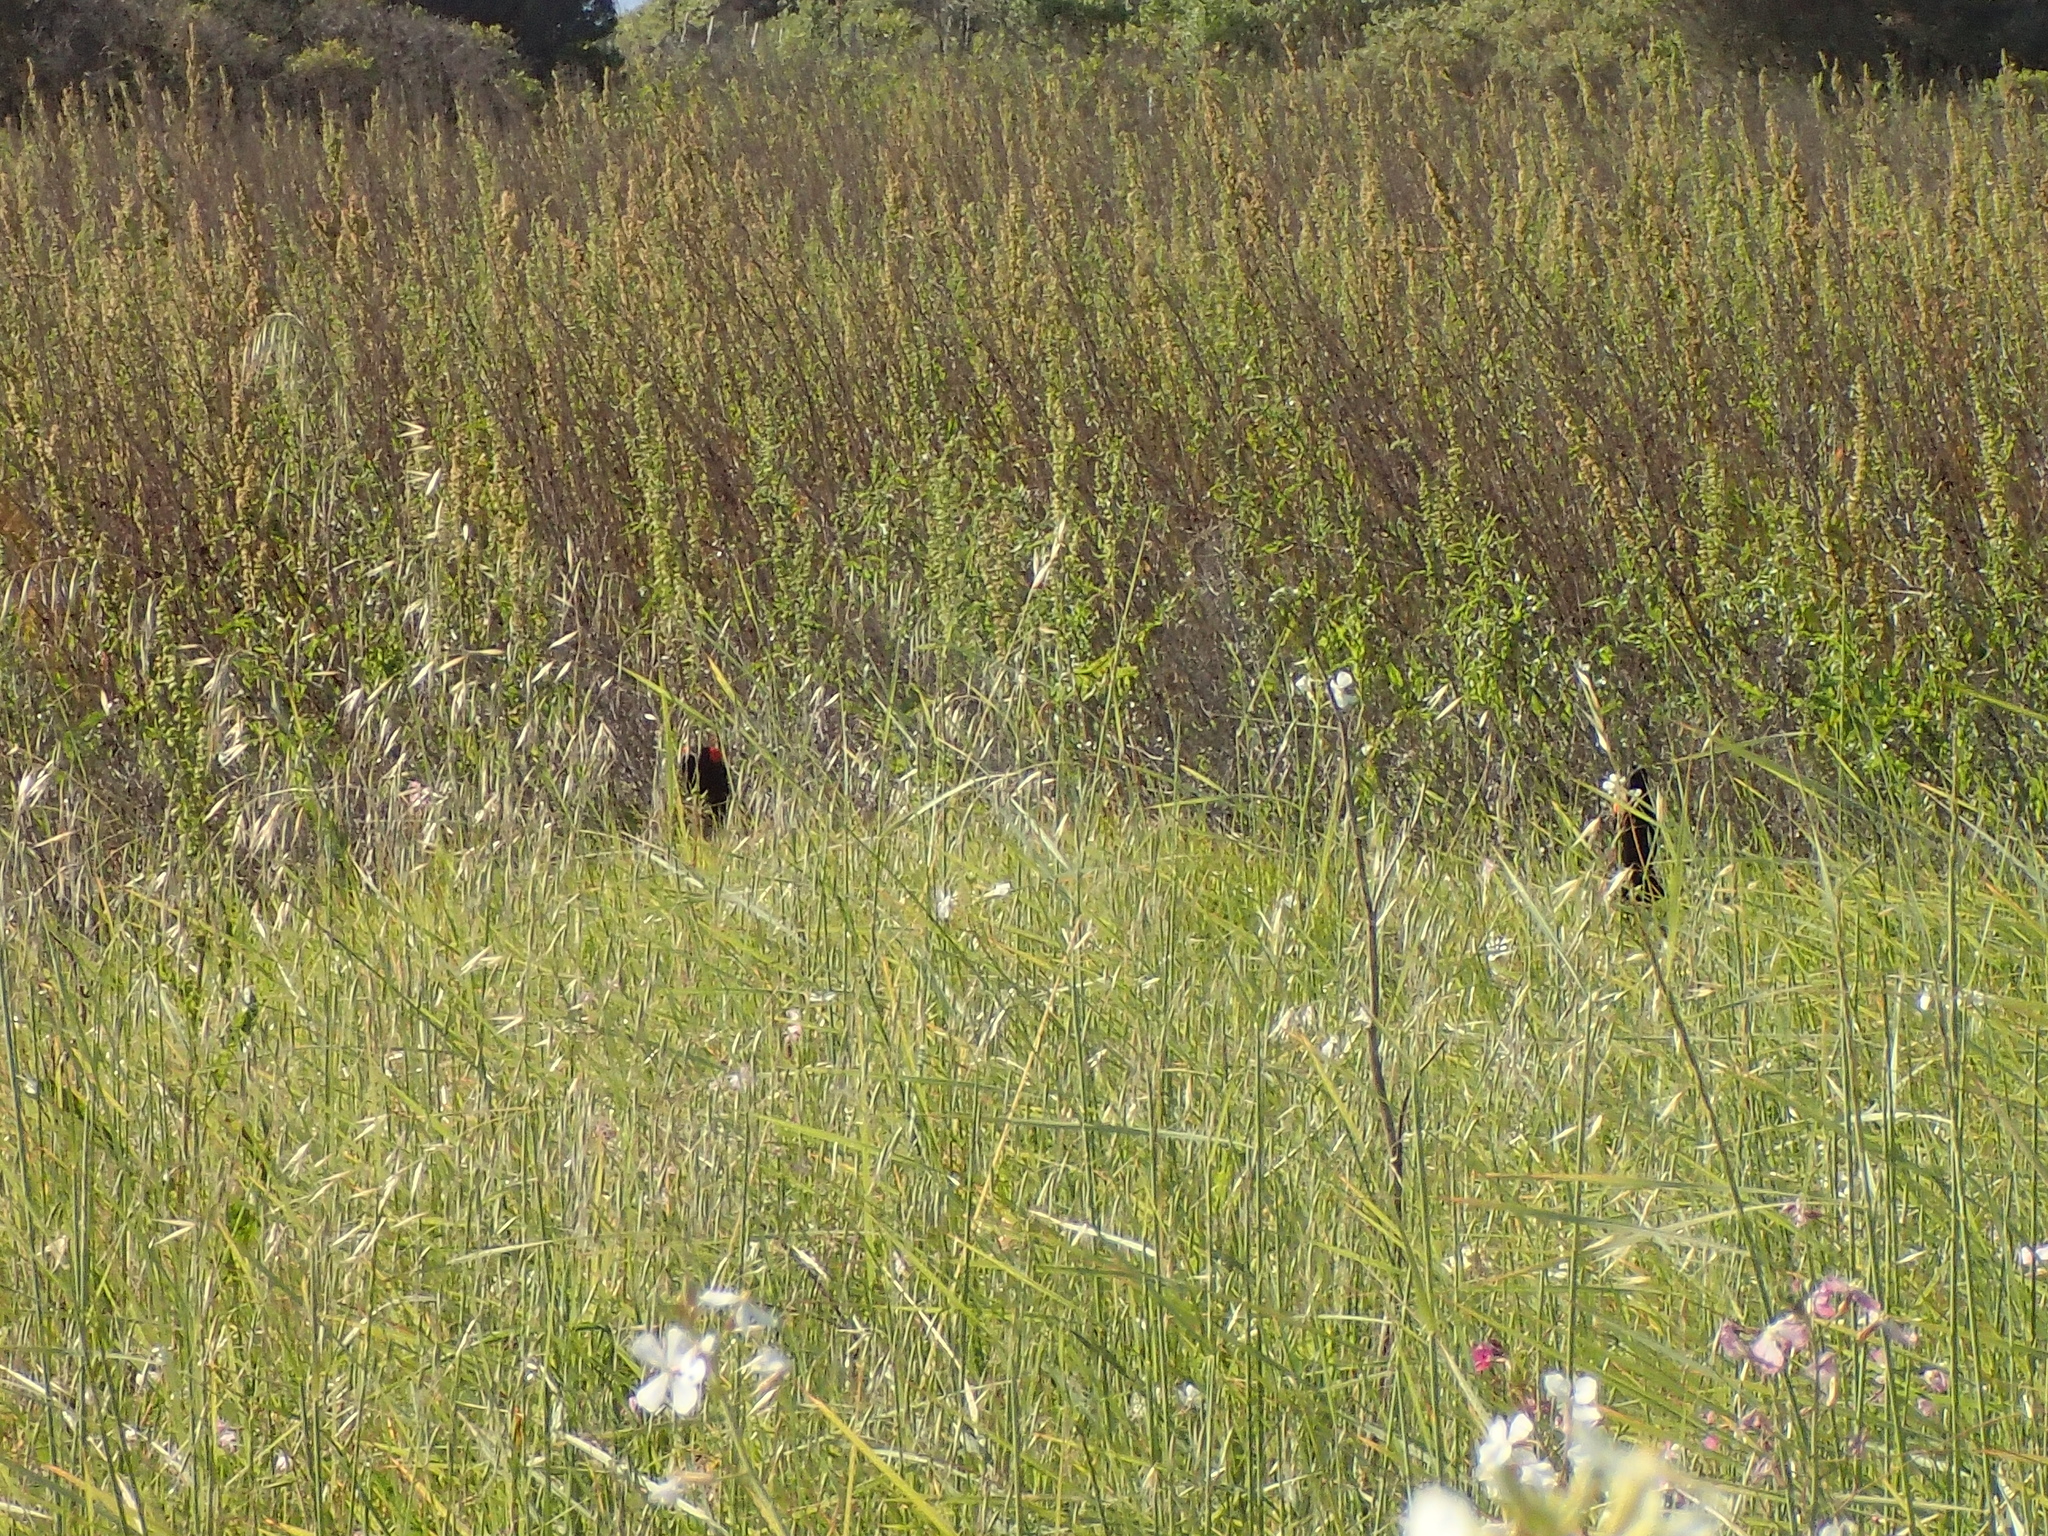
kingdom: Animalia
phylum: Chordata
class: Aves
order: Passeriformes
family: Icteridae
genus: Agelaius
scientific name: Agelaius phoeniceus
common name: Red-winged blackbird
